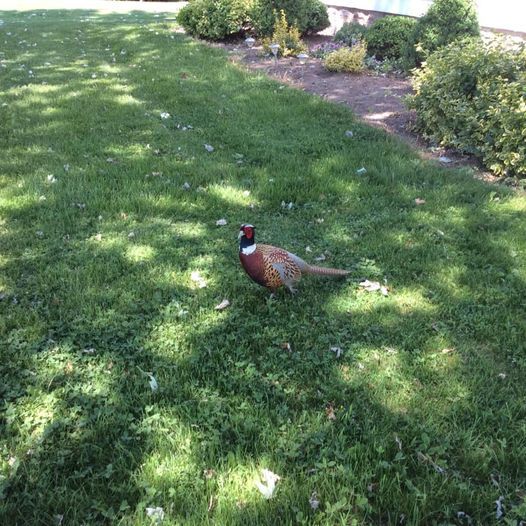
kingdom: Animalia
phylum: Chordata
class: Aves
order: Galliformes
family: Phasianidae
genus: Phasianus
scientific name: Phasianus colchicus
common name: Common pheasant
